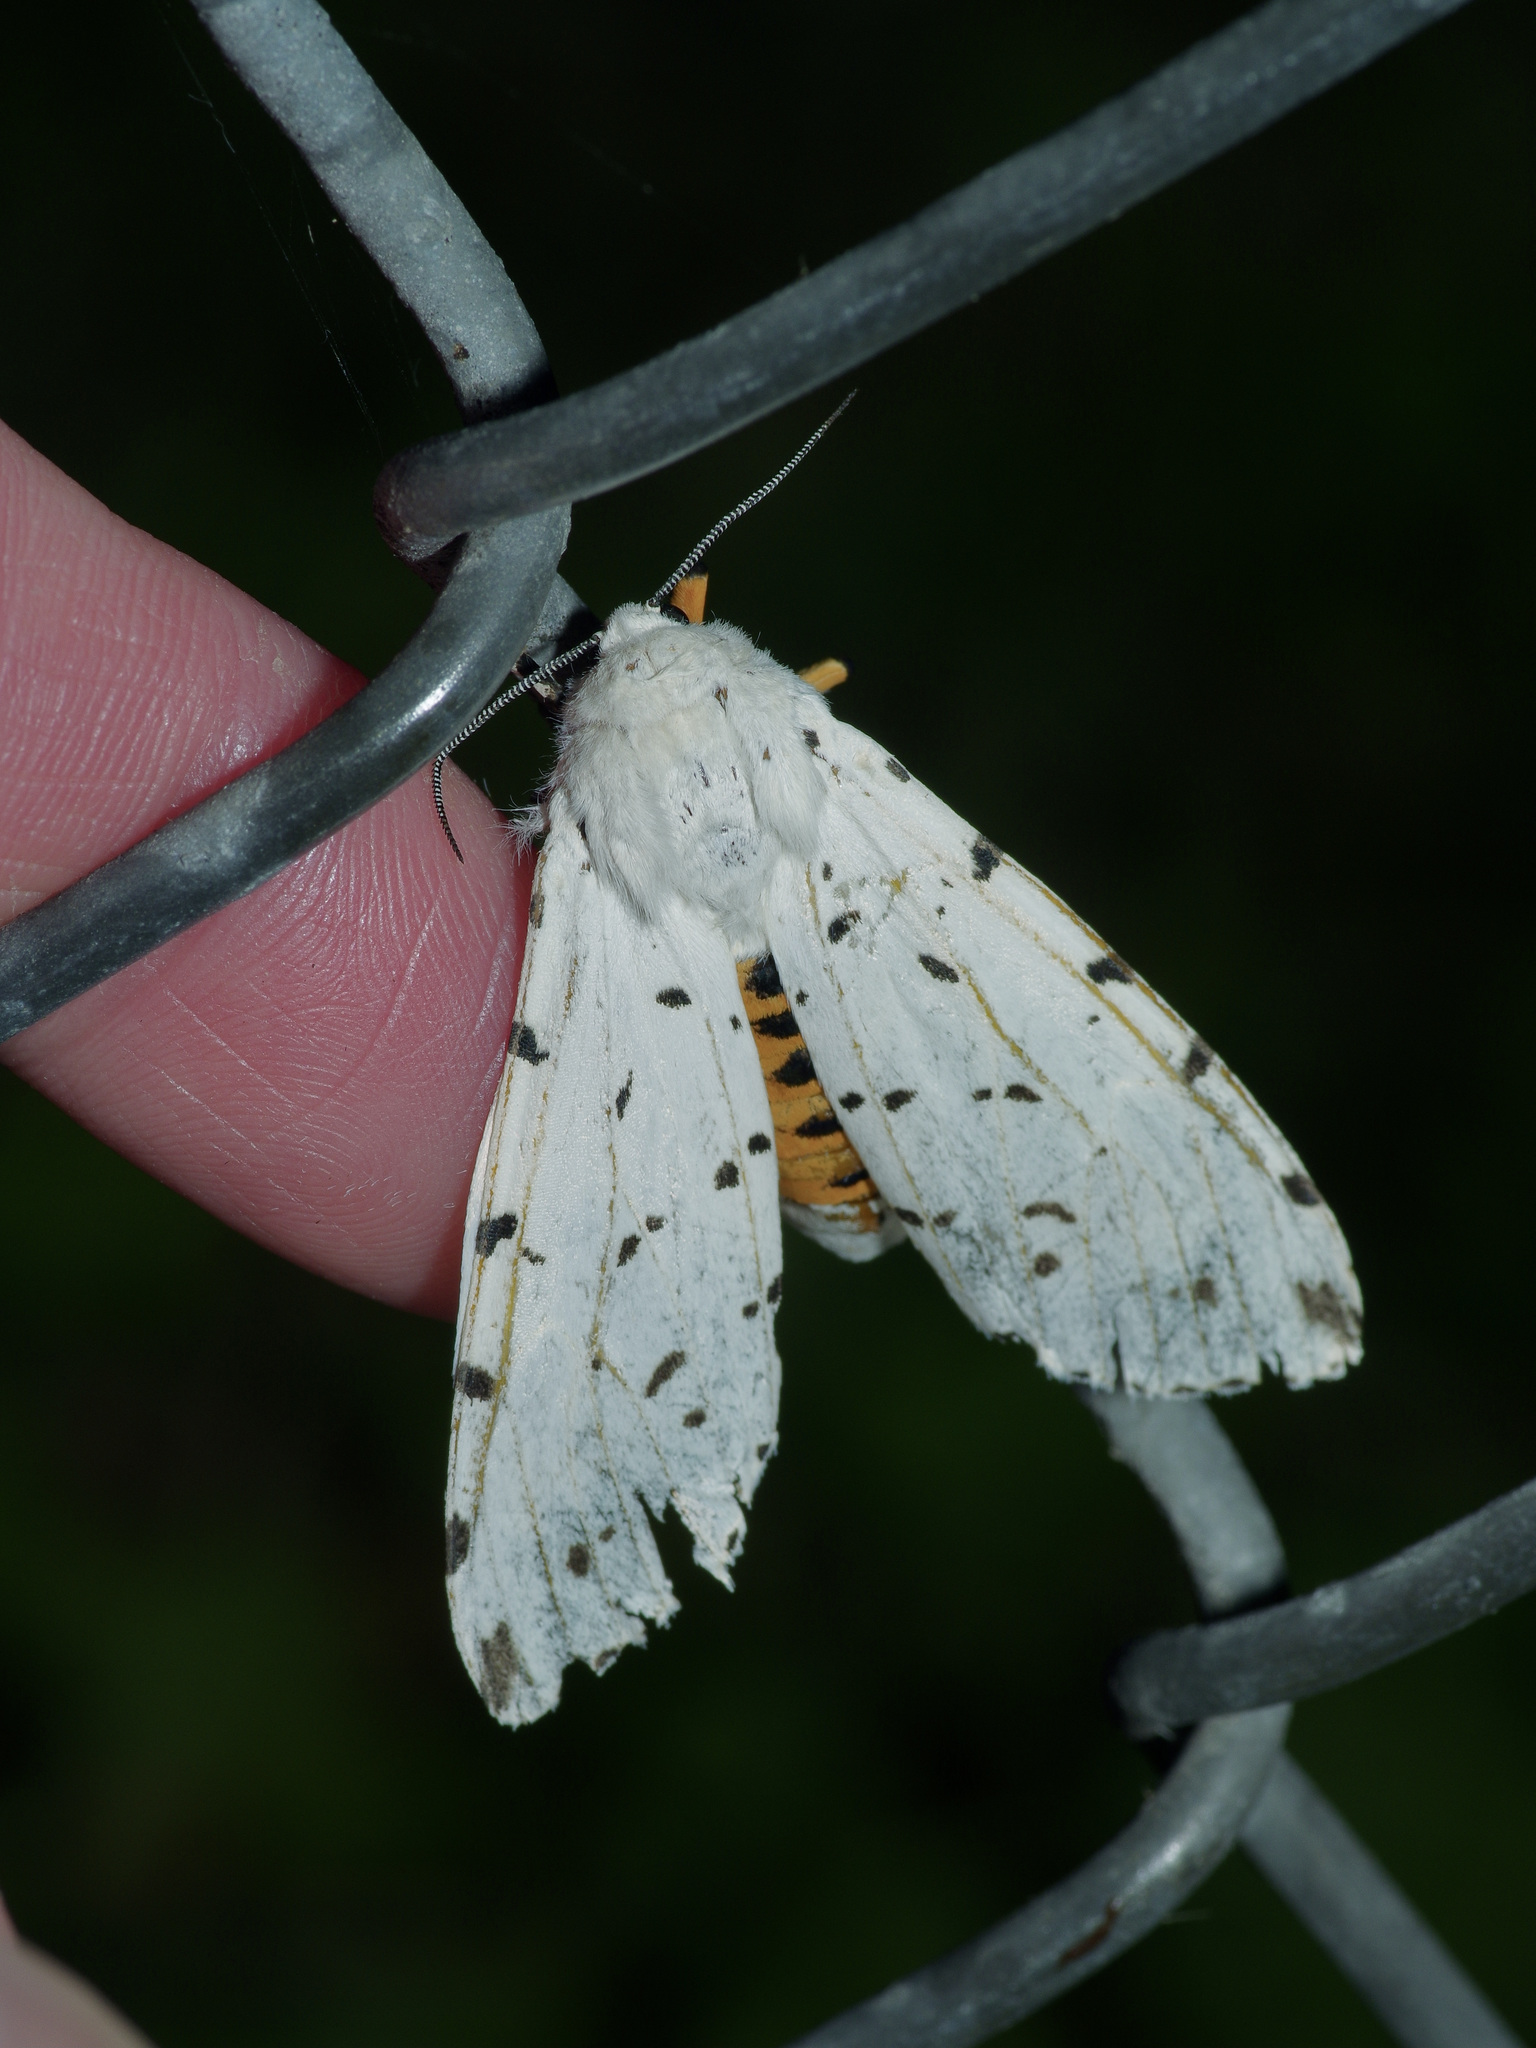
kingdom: Animalia
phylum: Arthropoda
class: Insecta
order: Lepidoptera
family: Erebidae
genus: Estigmene
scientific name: Estigmene acrea
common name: Salt marsh moth
